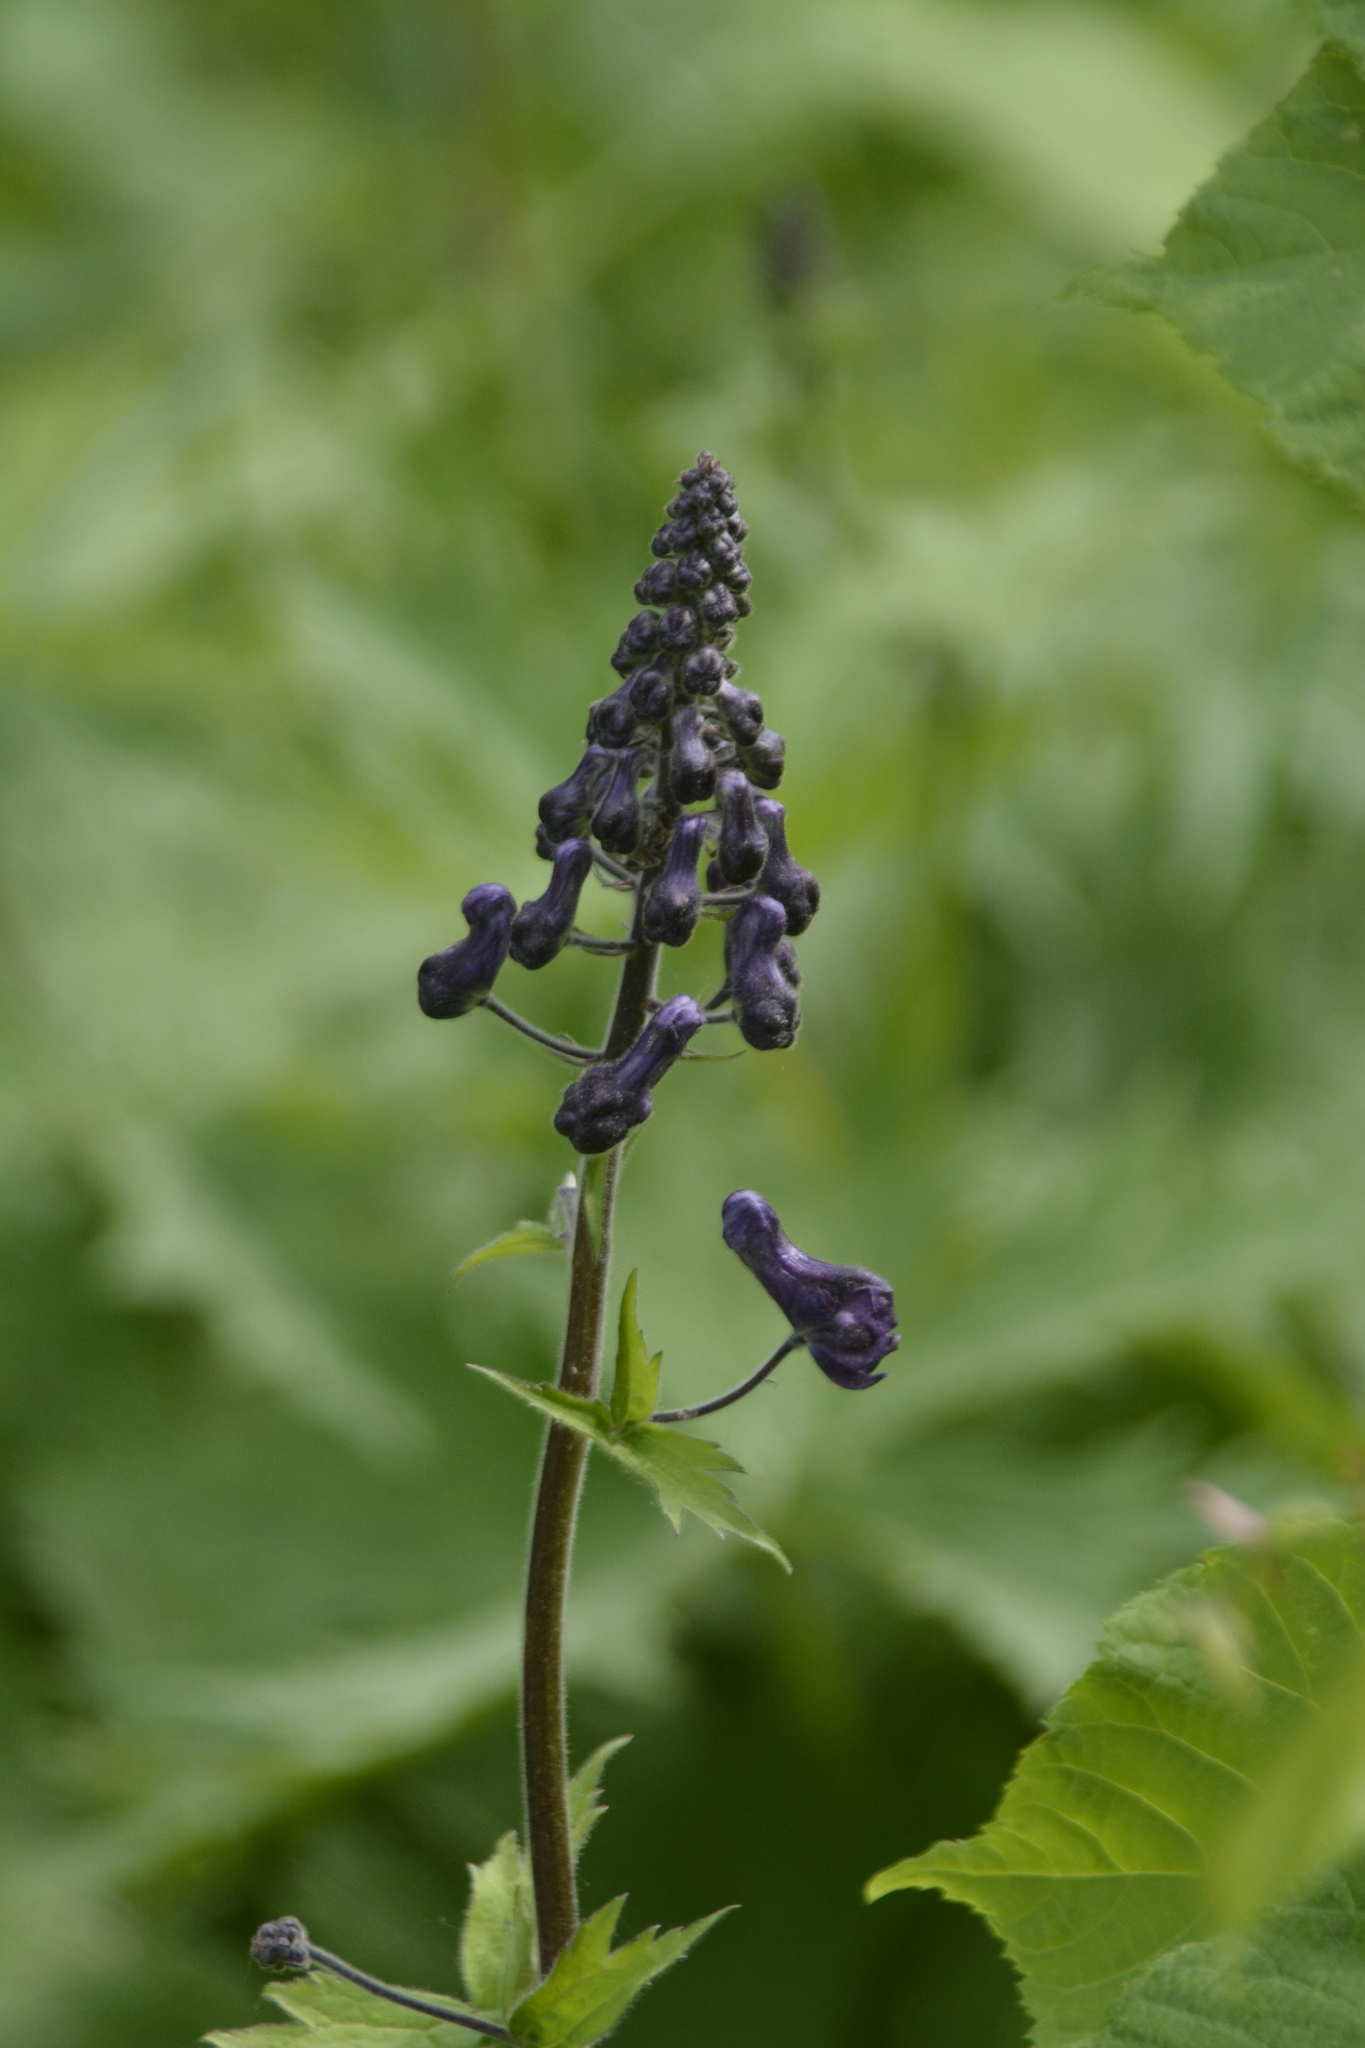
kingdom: Plantae
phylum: Tracheophyta
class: Magnoliopsida
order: Ranunculales
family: Ranunculaceae
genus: Aconitum
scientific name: Aconitum septentrionale
